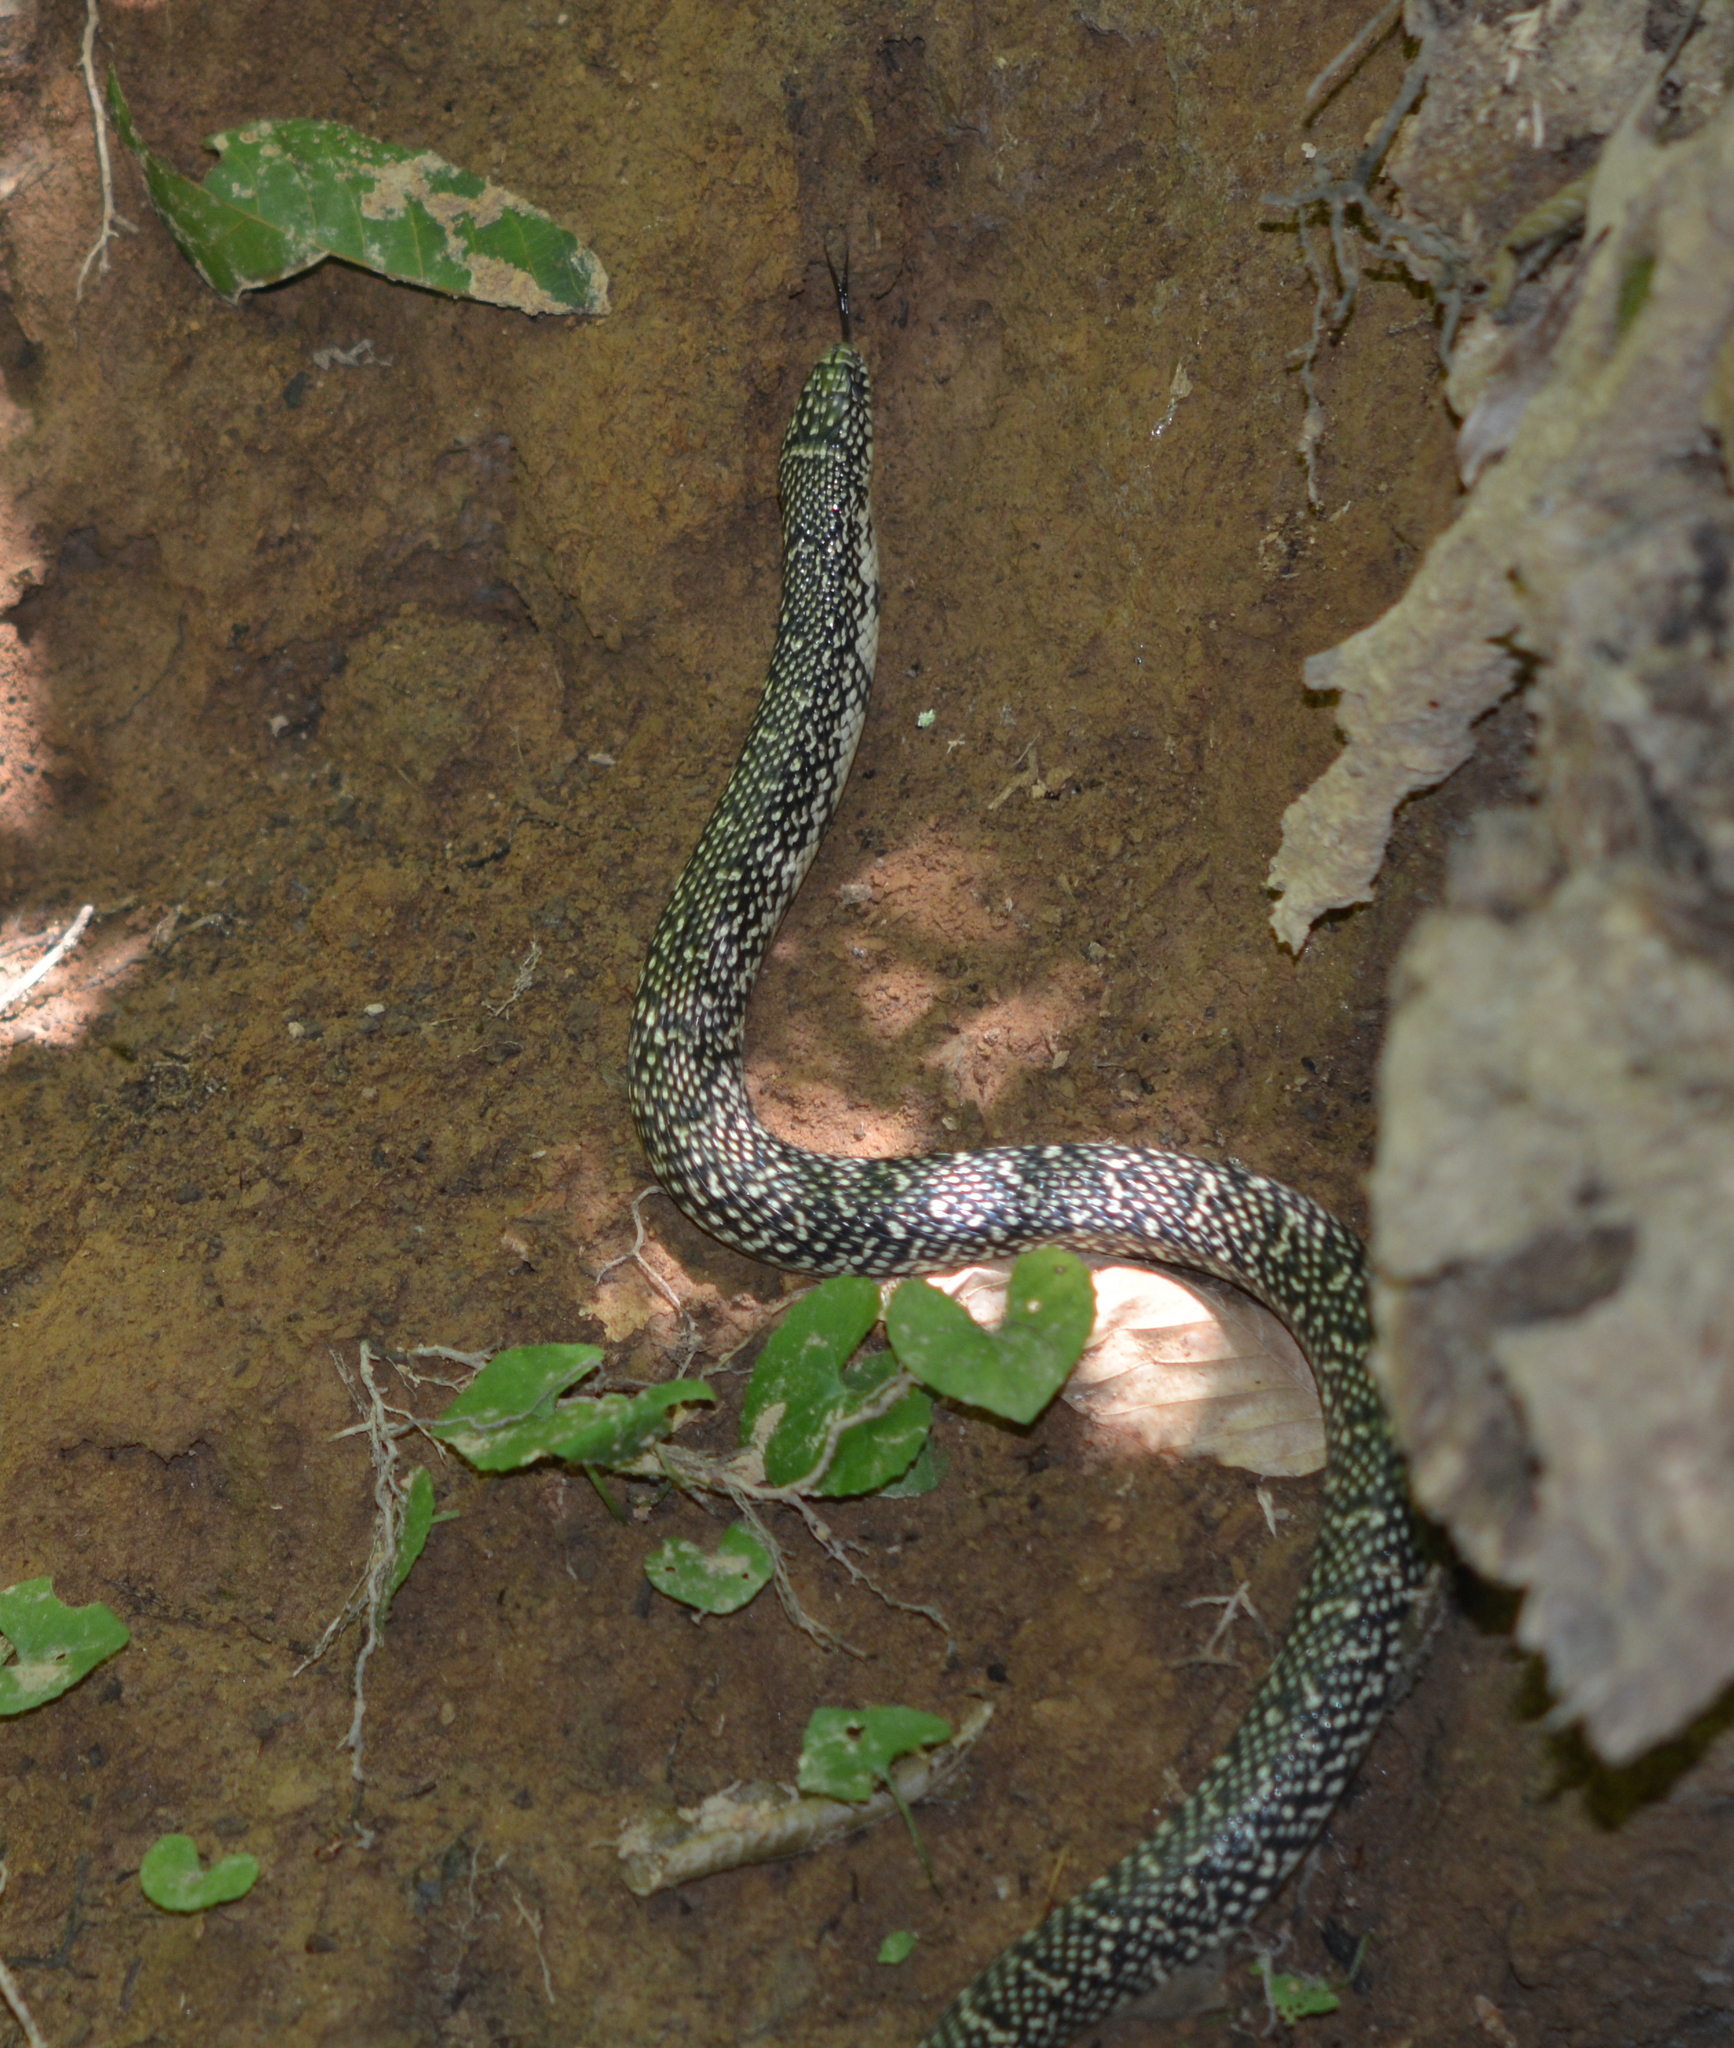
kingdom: Animalia
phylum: Chordata
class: Squamata
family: Colubridae
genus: Lampropeltis
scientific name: Lampropeltis holbrooki
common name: Speckled kingsnake
